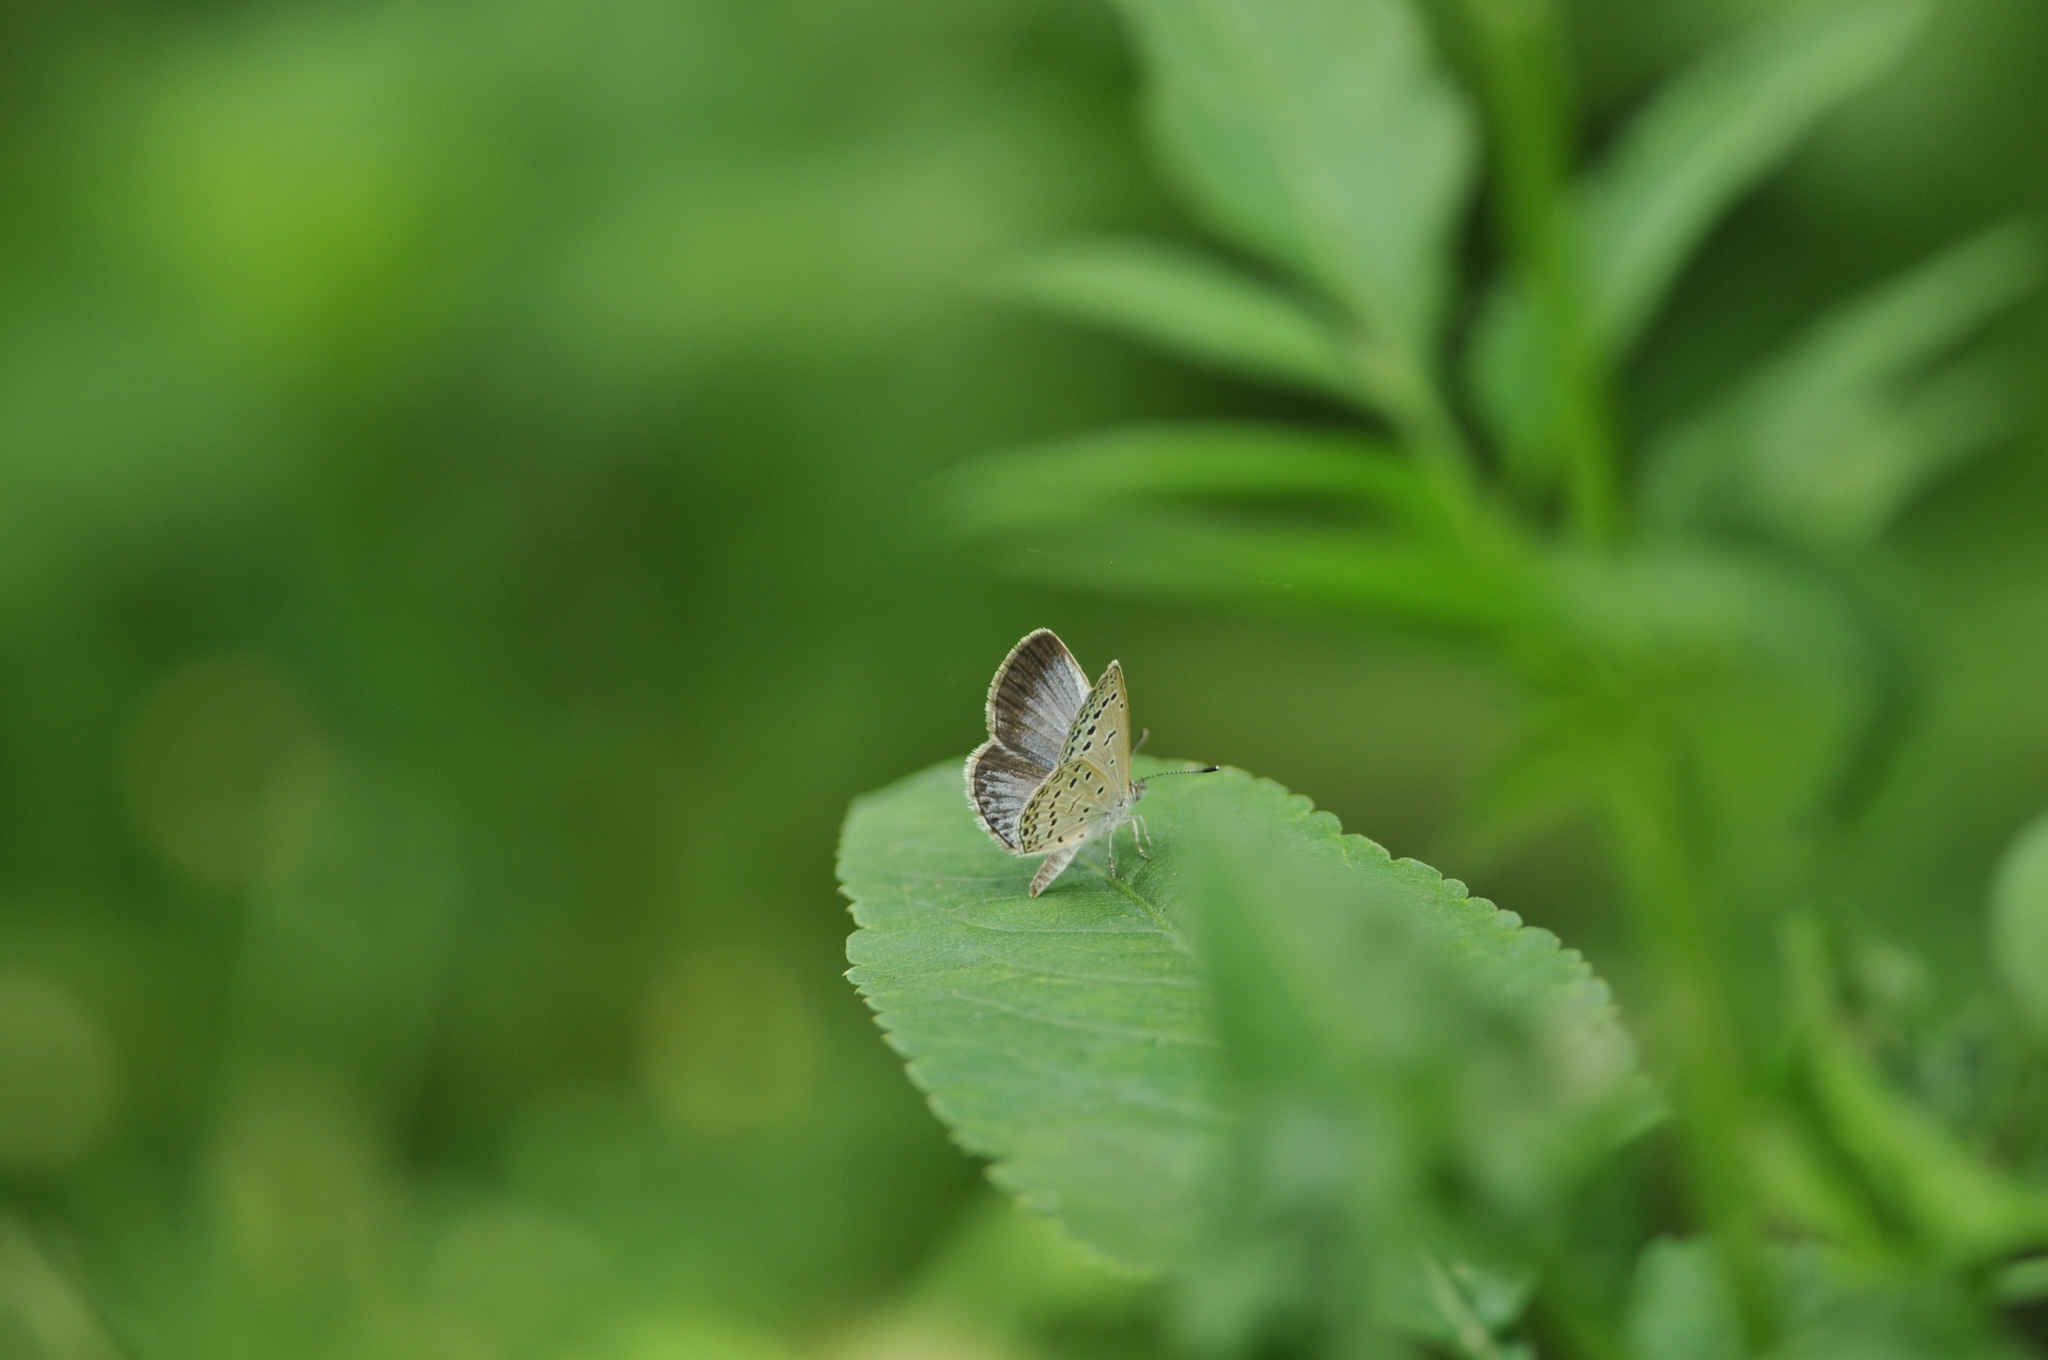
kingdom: Animalia
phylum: Arthropoda
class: Insecta
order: Lepidoptera
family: Lycaenidae
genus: Pseudozizeeria
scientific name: Pseudozizeeria maha
